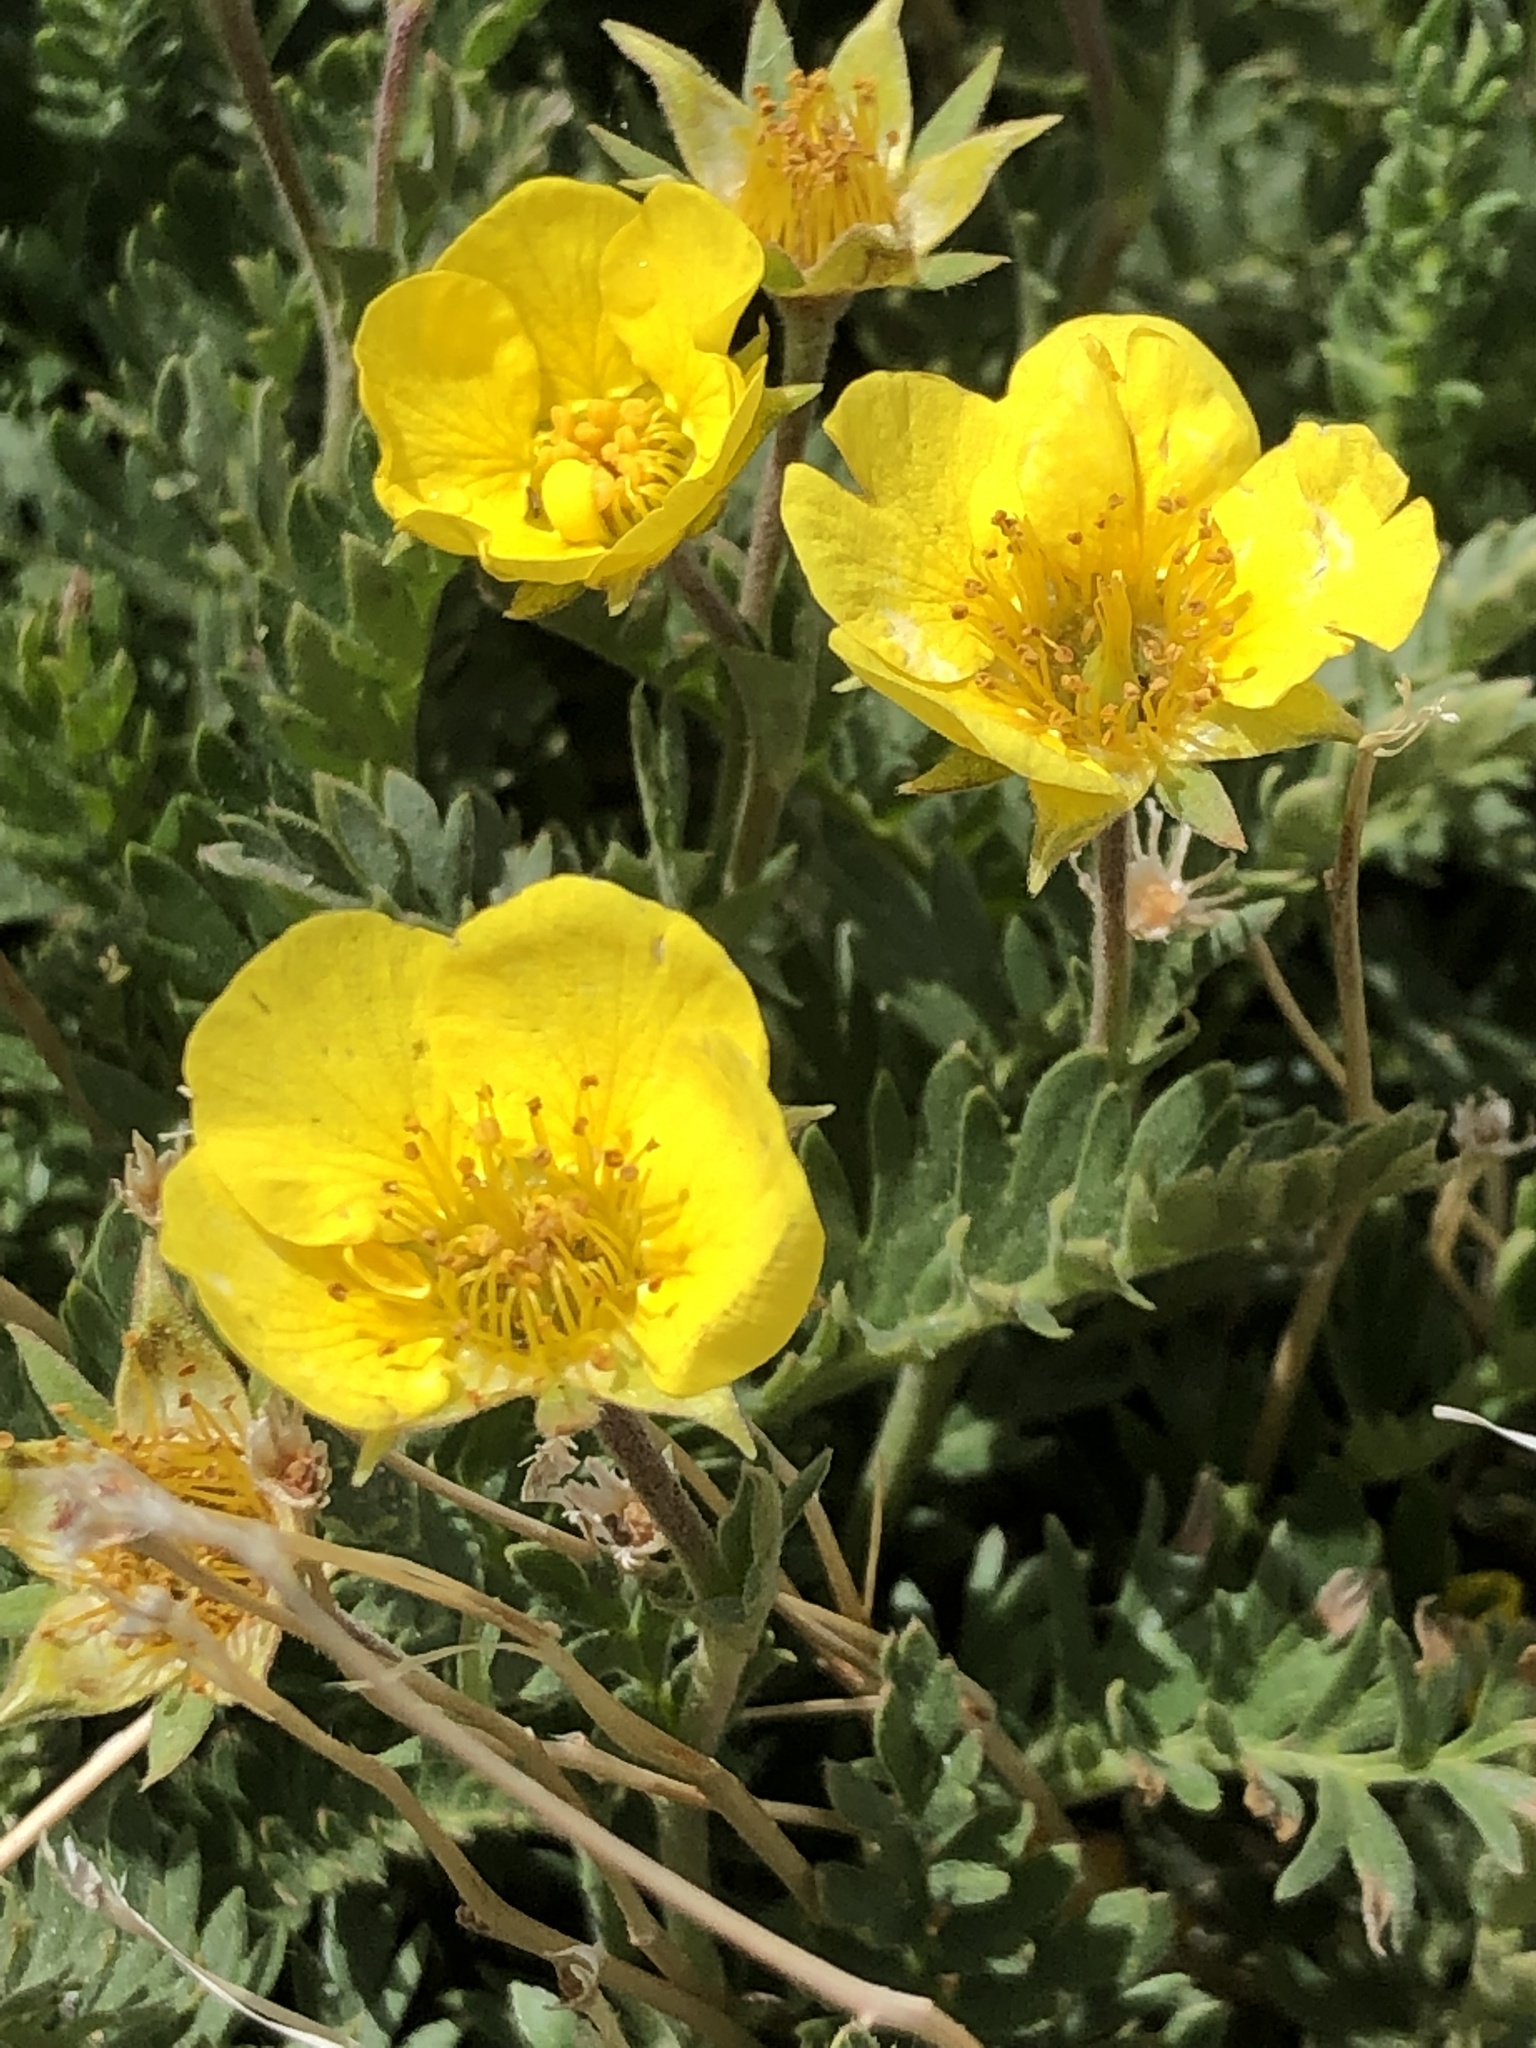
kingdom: Plantae
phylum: Tracheophyta
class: Magnoliopsida
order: Rosales
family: Rosaceae
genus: Geum
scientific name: Geum rossii
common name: Alpine avens
